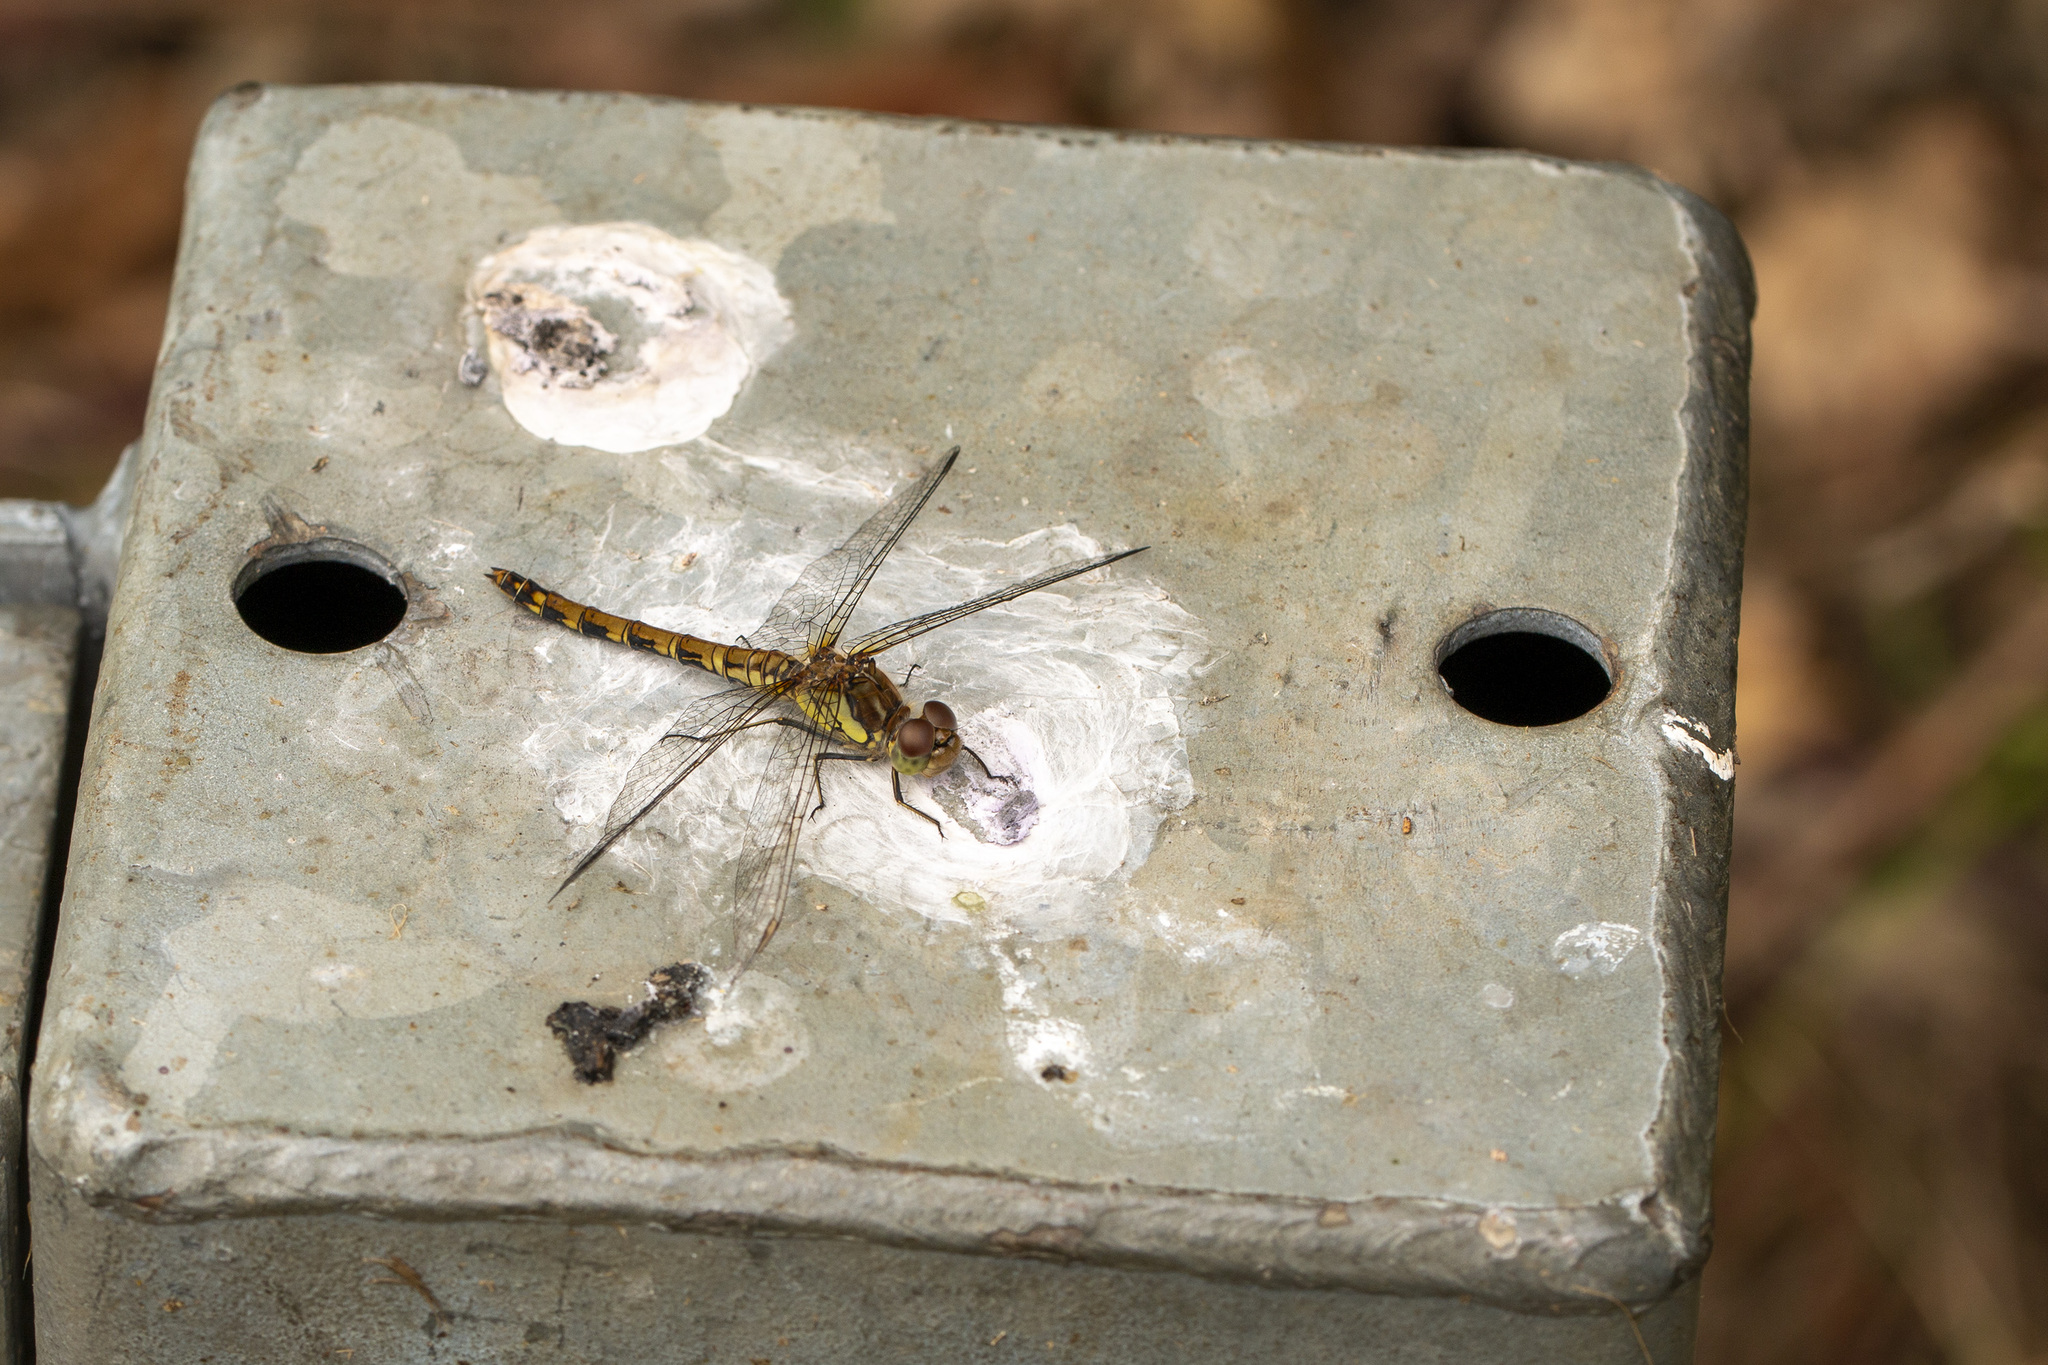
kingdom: Animalia
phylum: Arthropoda
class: Insecta
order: Odonata
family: Libellulidae
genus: Sympetrum
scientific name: Sympetrum striolatum
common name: Common darter
